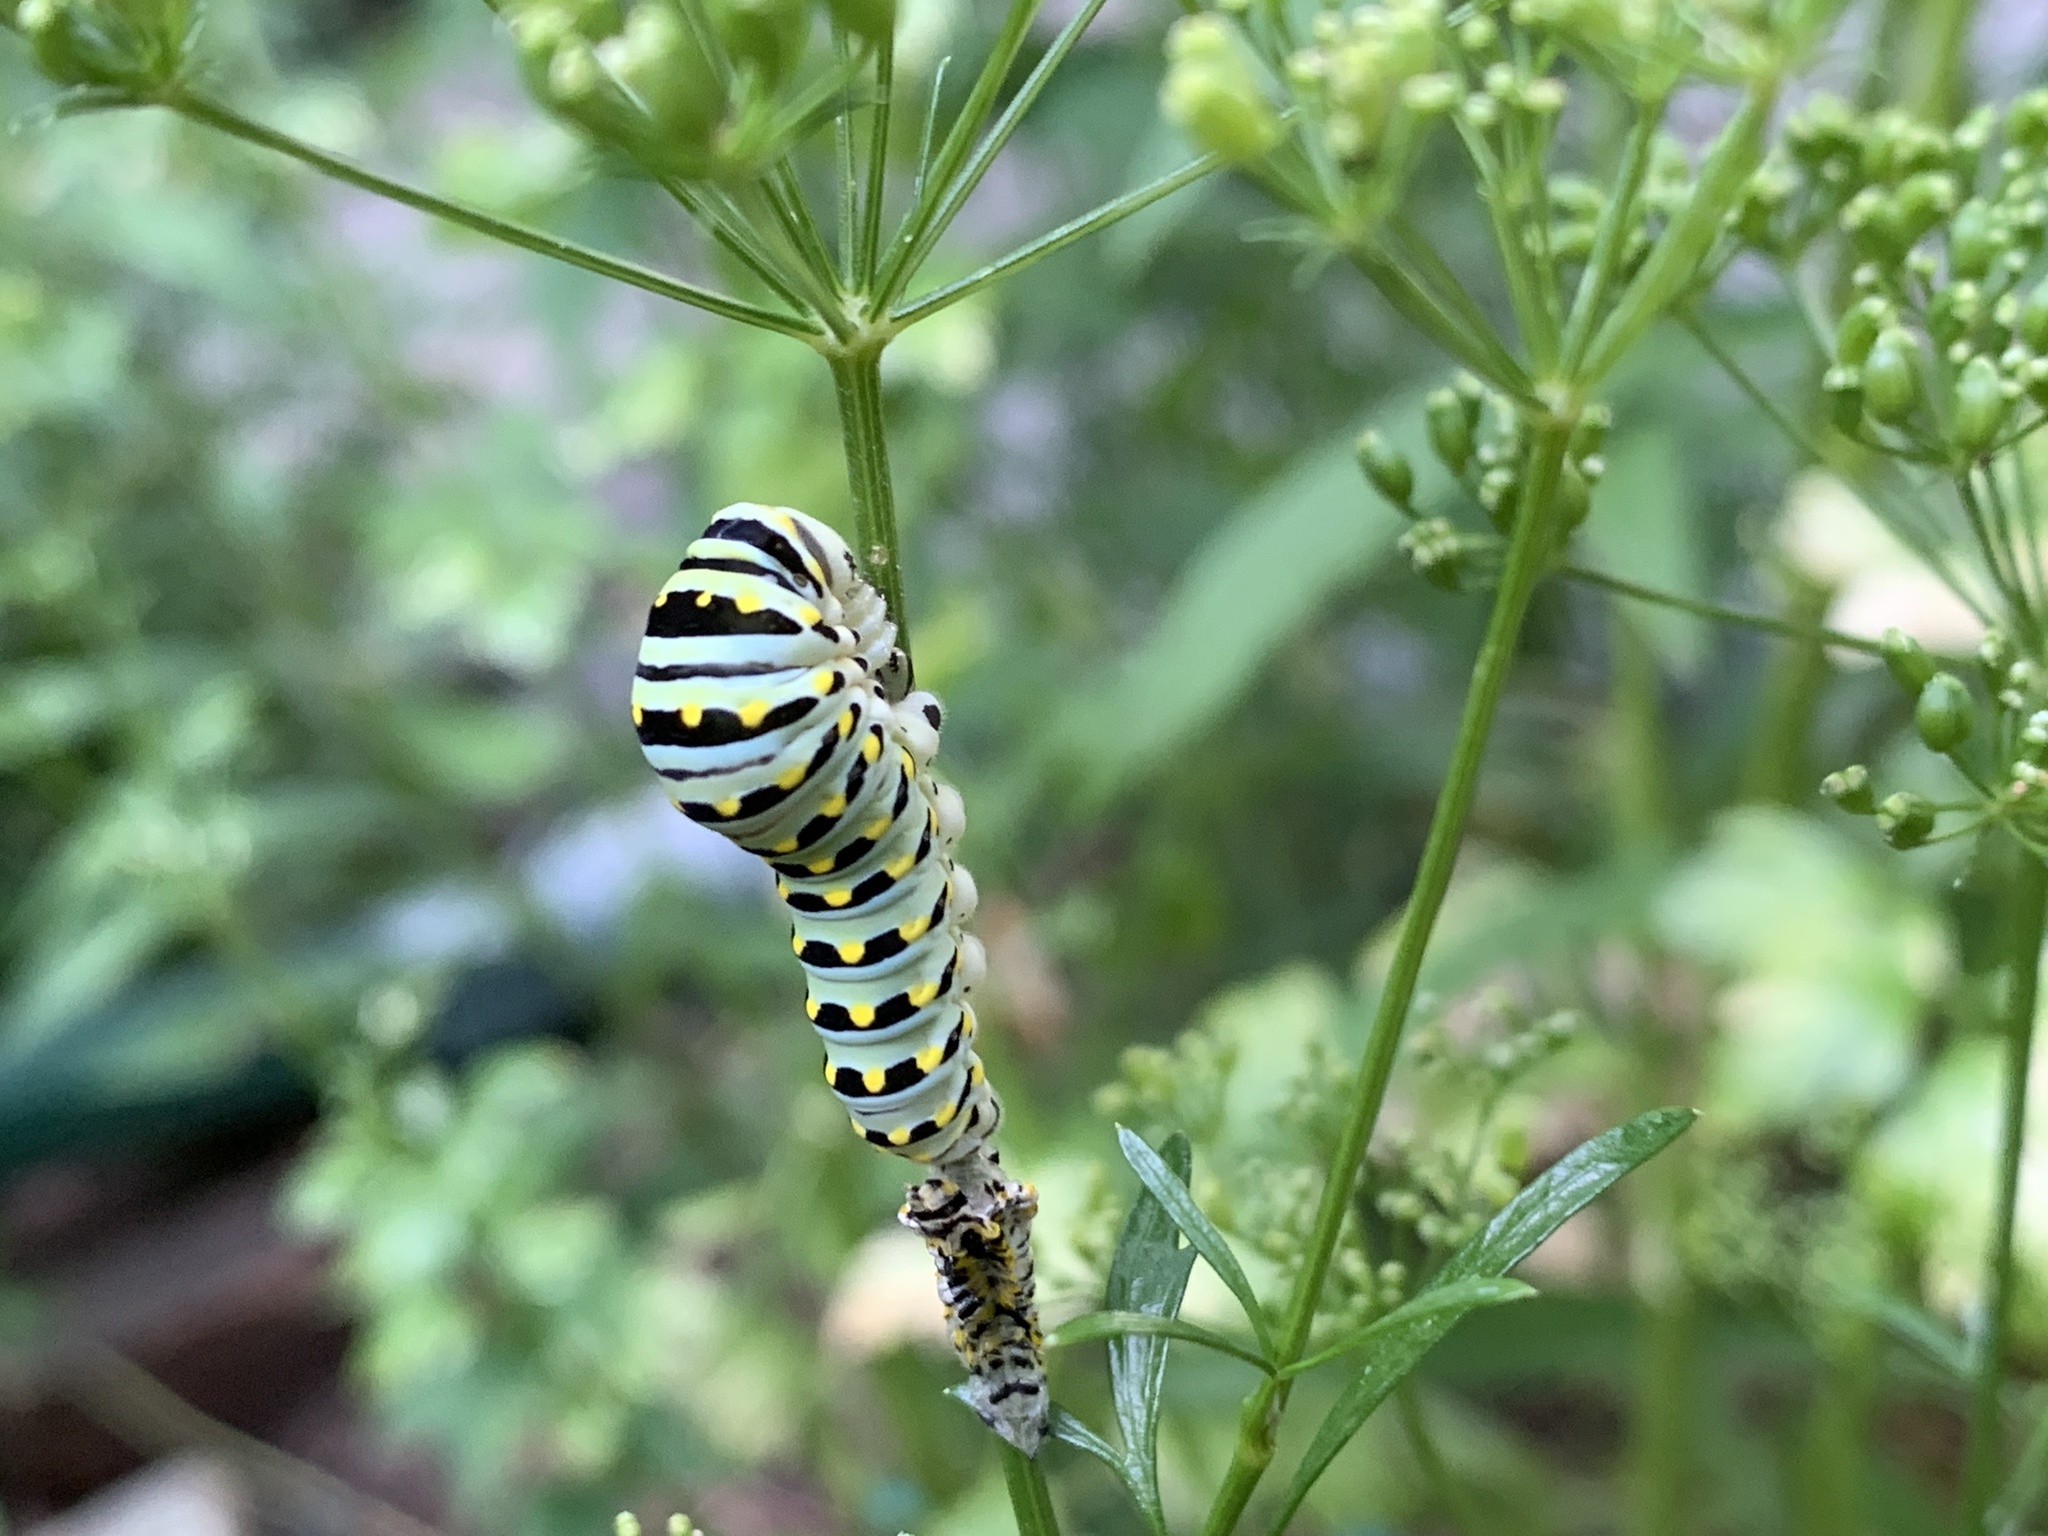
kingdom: Animalia
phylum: Arthropoda
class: Insecta
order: Lepidoptera
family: Papilionidae
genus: Papilio
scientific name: Papilio polyxenes
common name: Black swallowtail
